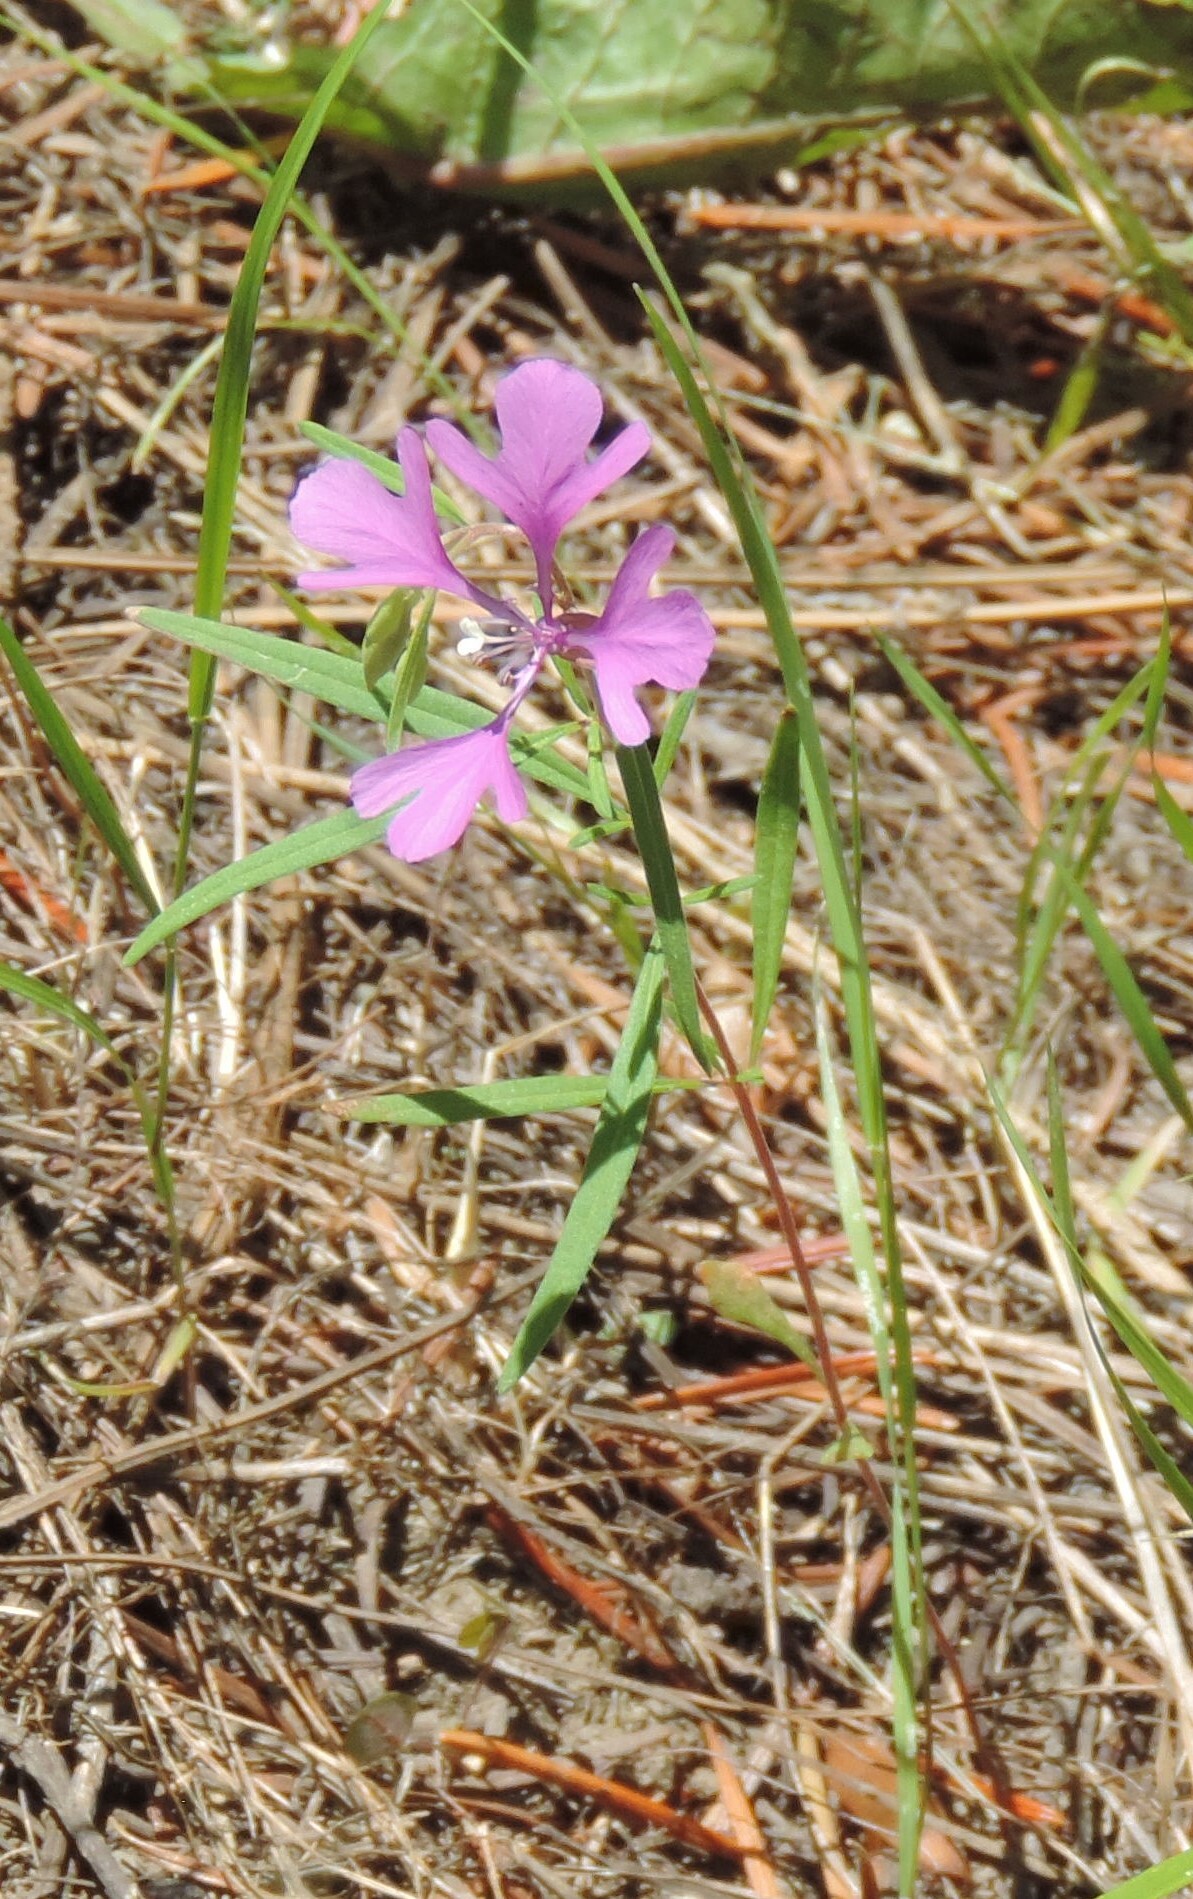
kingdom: Plantae
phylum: Tracheophyta
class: Magnoliopsida
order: Myrtales
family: Onagraceae
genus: Clarkia
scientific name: Clarkia pulchella
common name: Deer horn
